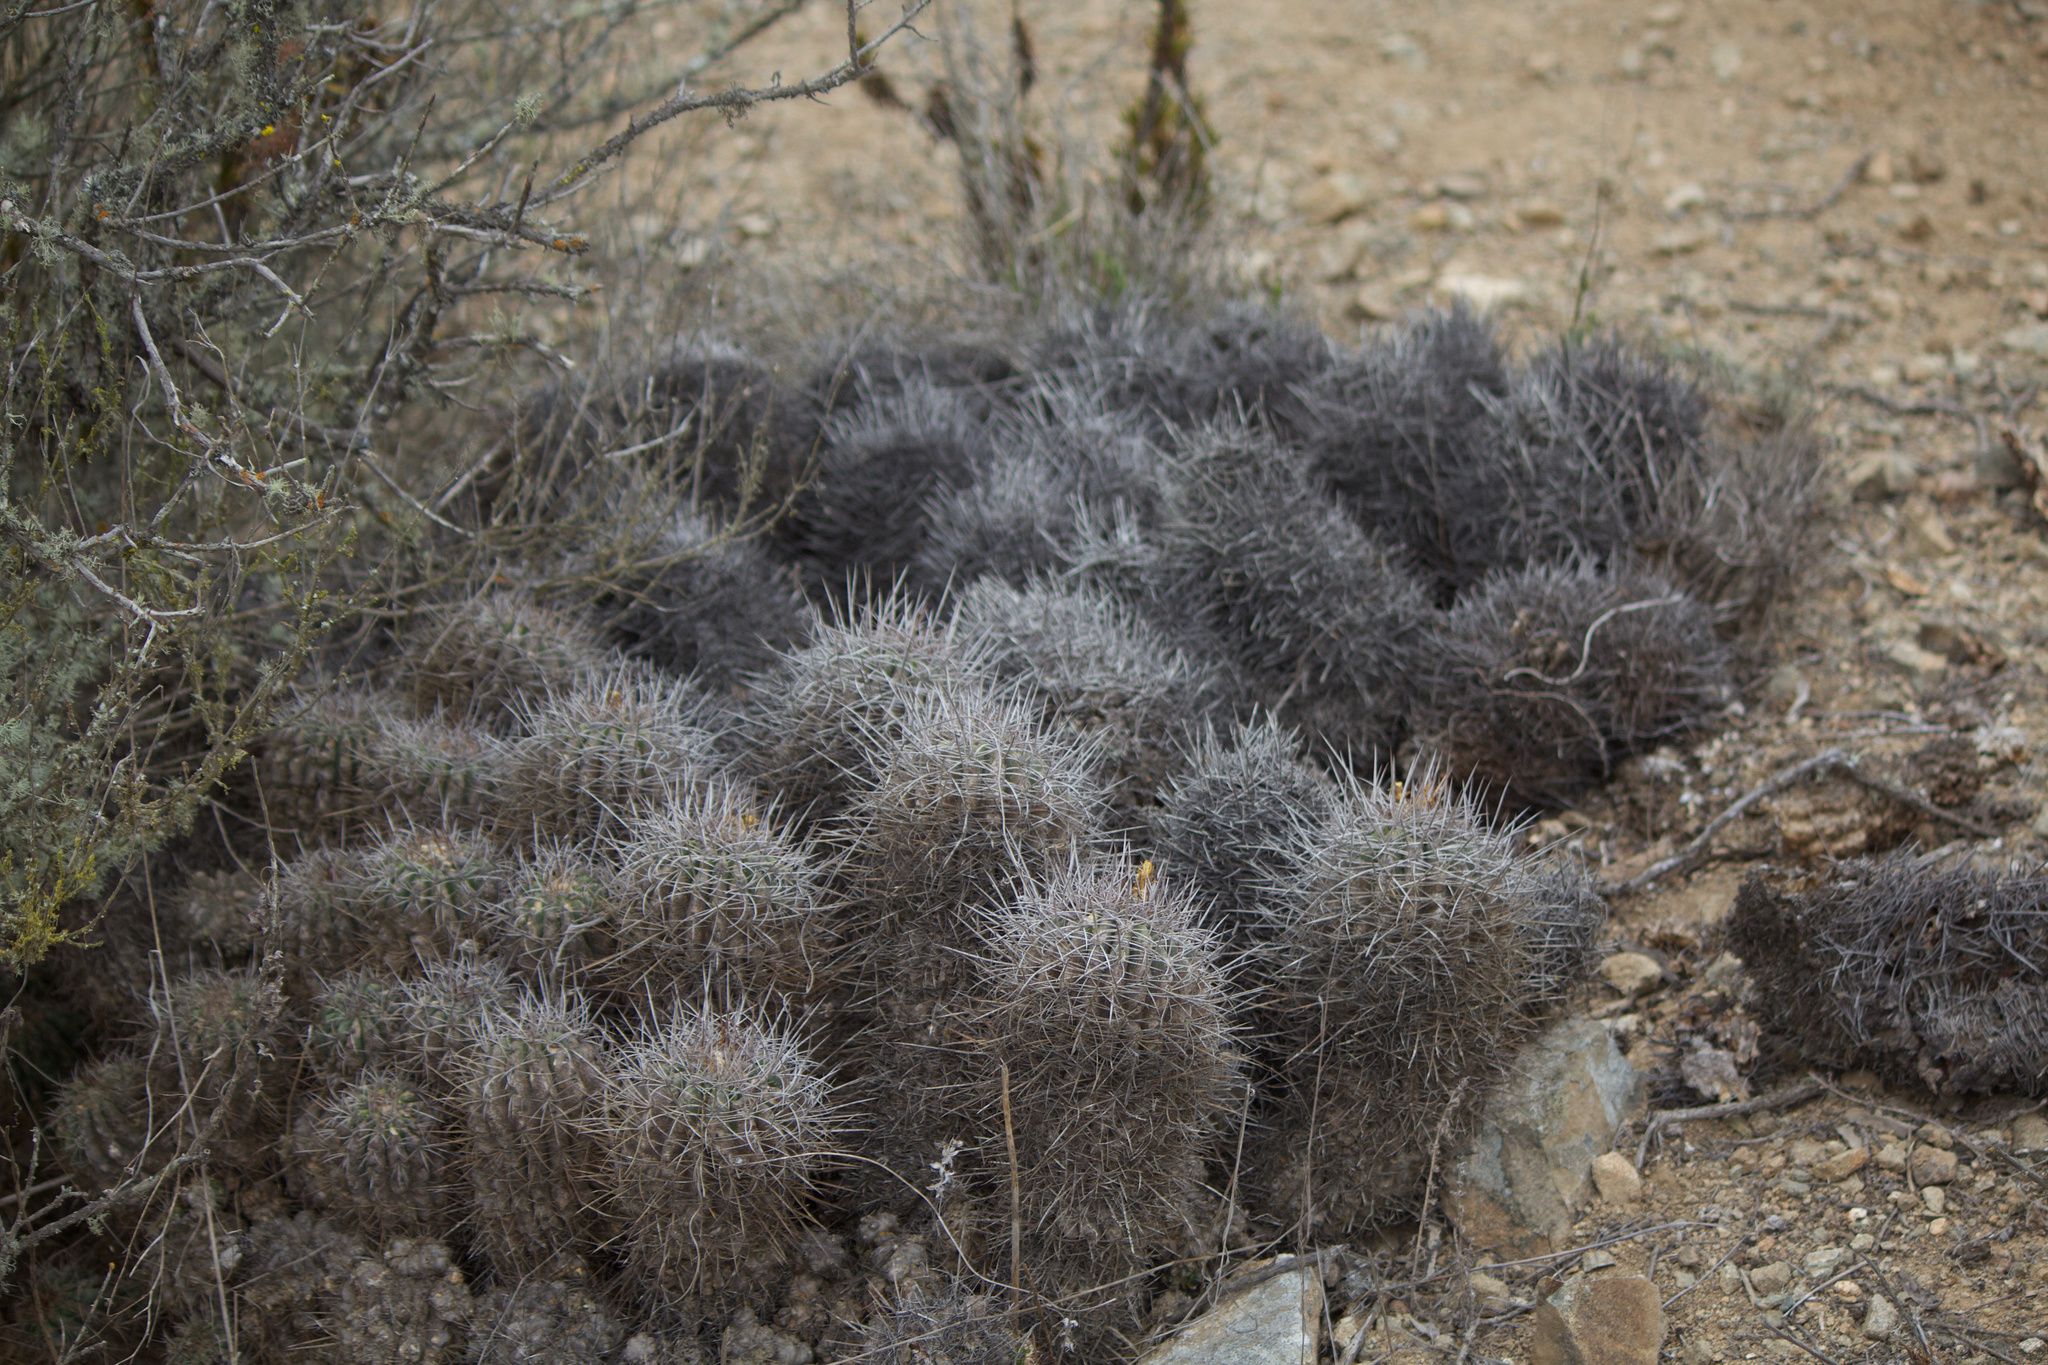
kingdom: Plantae
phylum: Tracheophyta
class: Magnoliopsida
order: Caryophyllales
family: Cactaceae
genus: Copiapoa
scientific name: Copiapoa coquimbana
